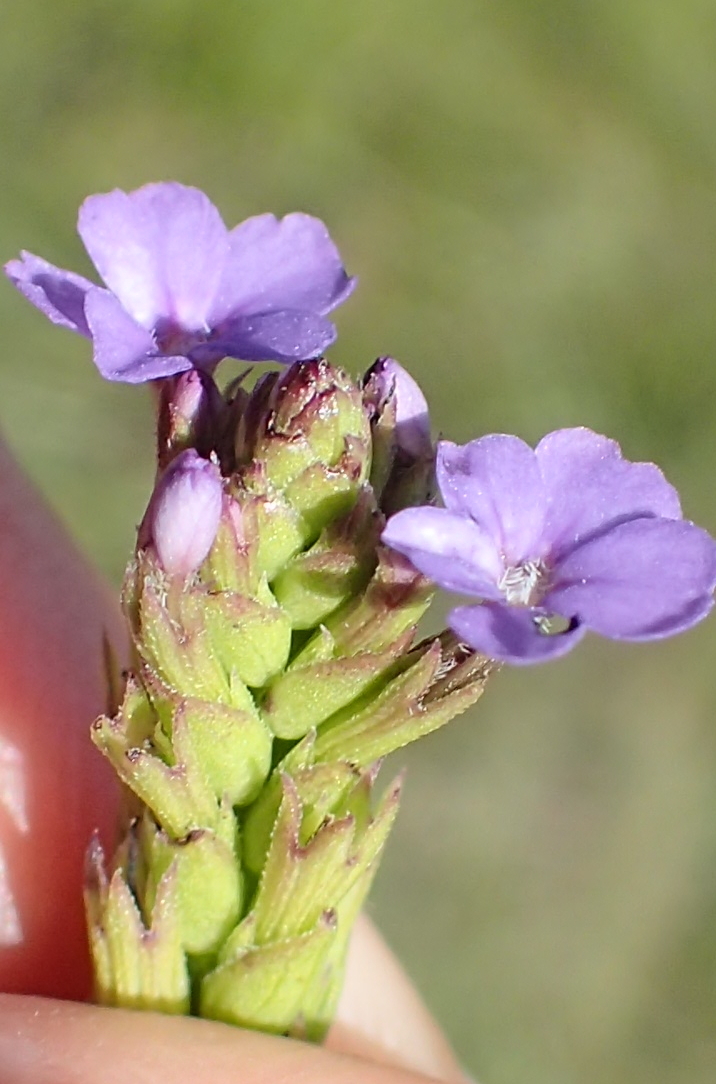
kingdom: Plantae
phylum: Tracheophyta
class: Magnoliopsida
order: Lamiales
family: Orobanchaceae
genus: Buchnera
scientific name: Buchnera simplex
